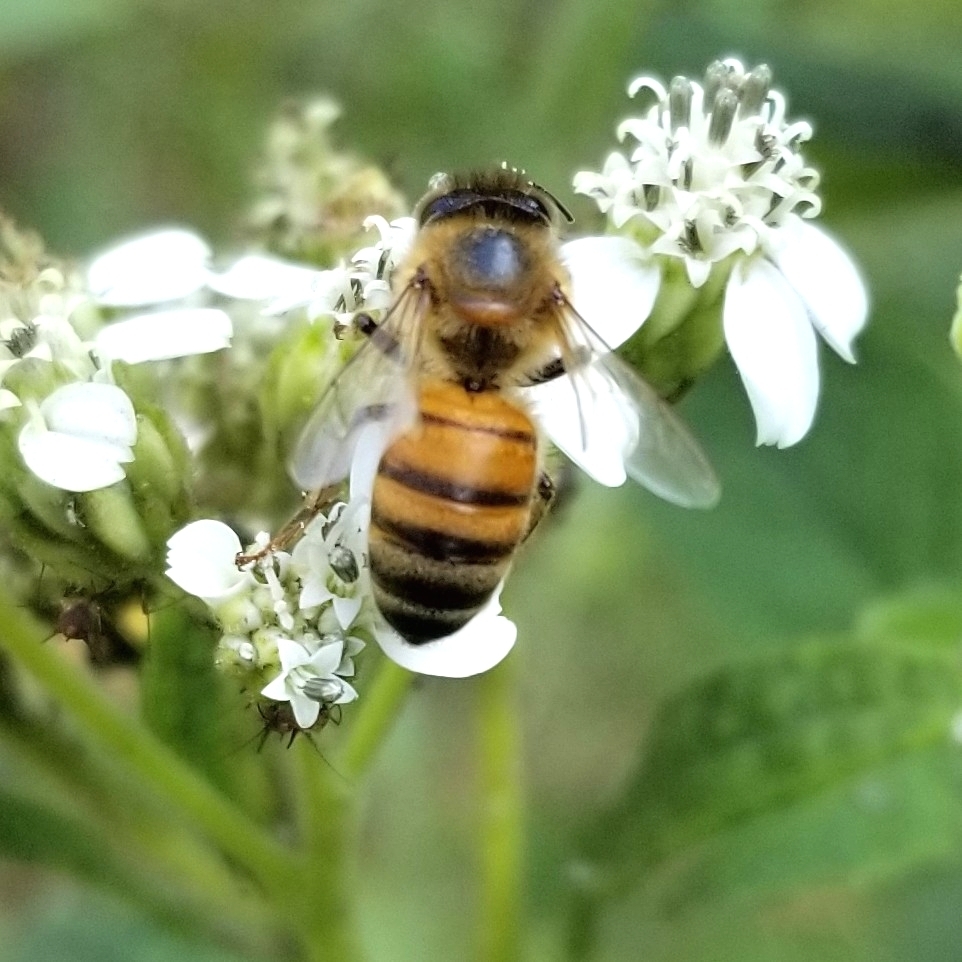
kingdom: Animalia
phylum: Arthropoda
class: Insecta
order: Hymenoptera
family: Apidae
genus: Apis
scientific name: Apis mellifera
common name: Honey bee
